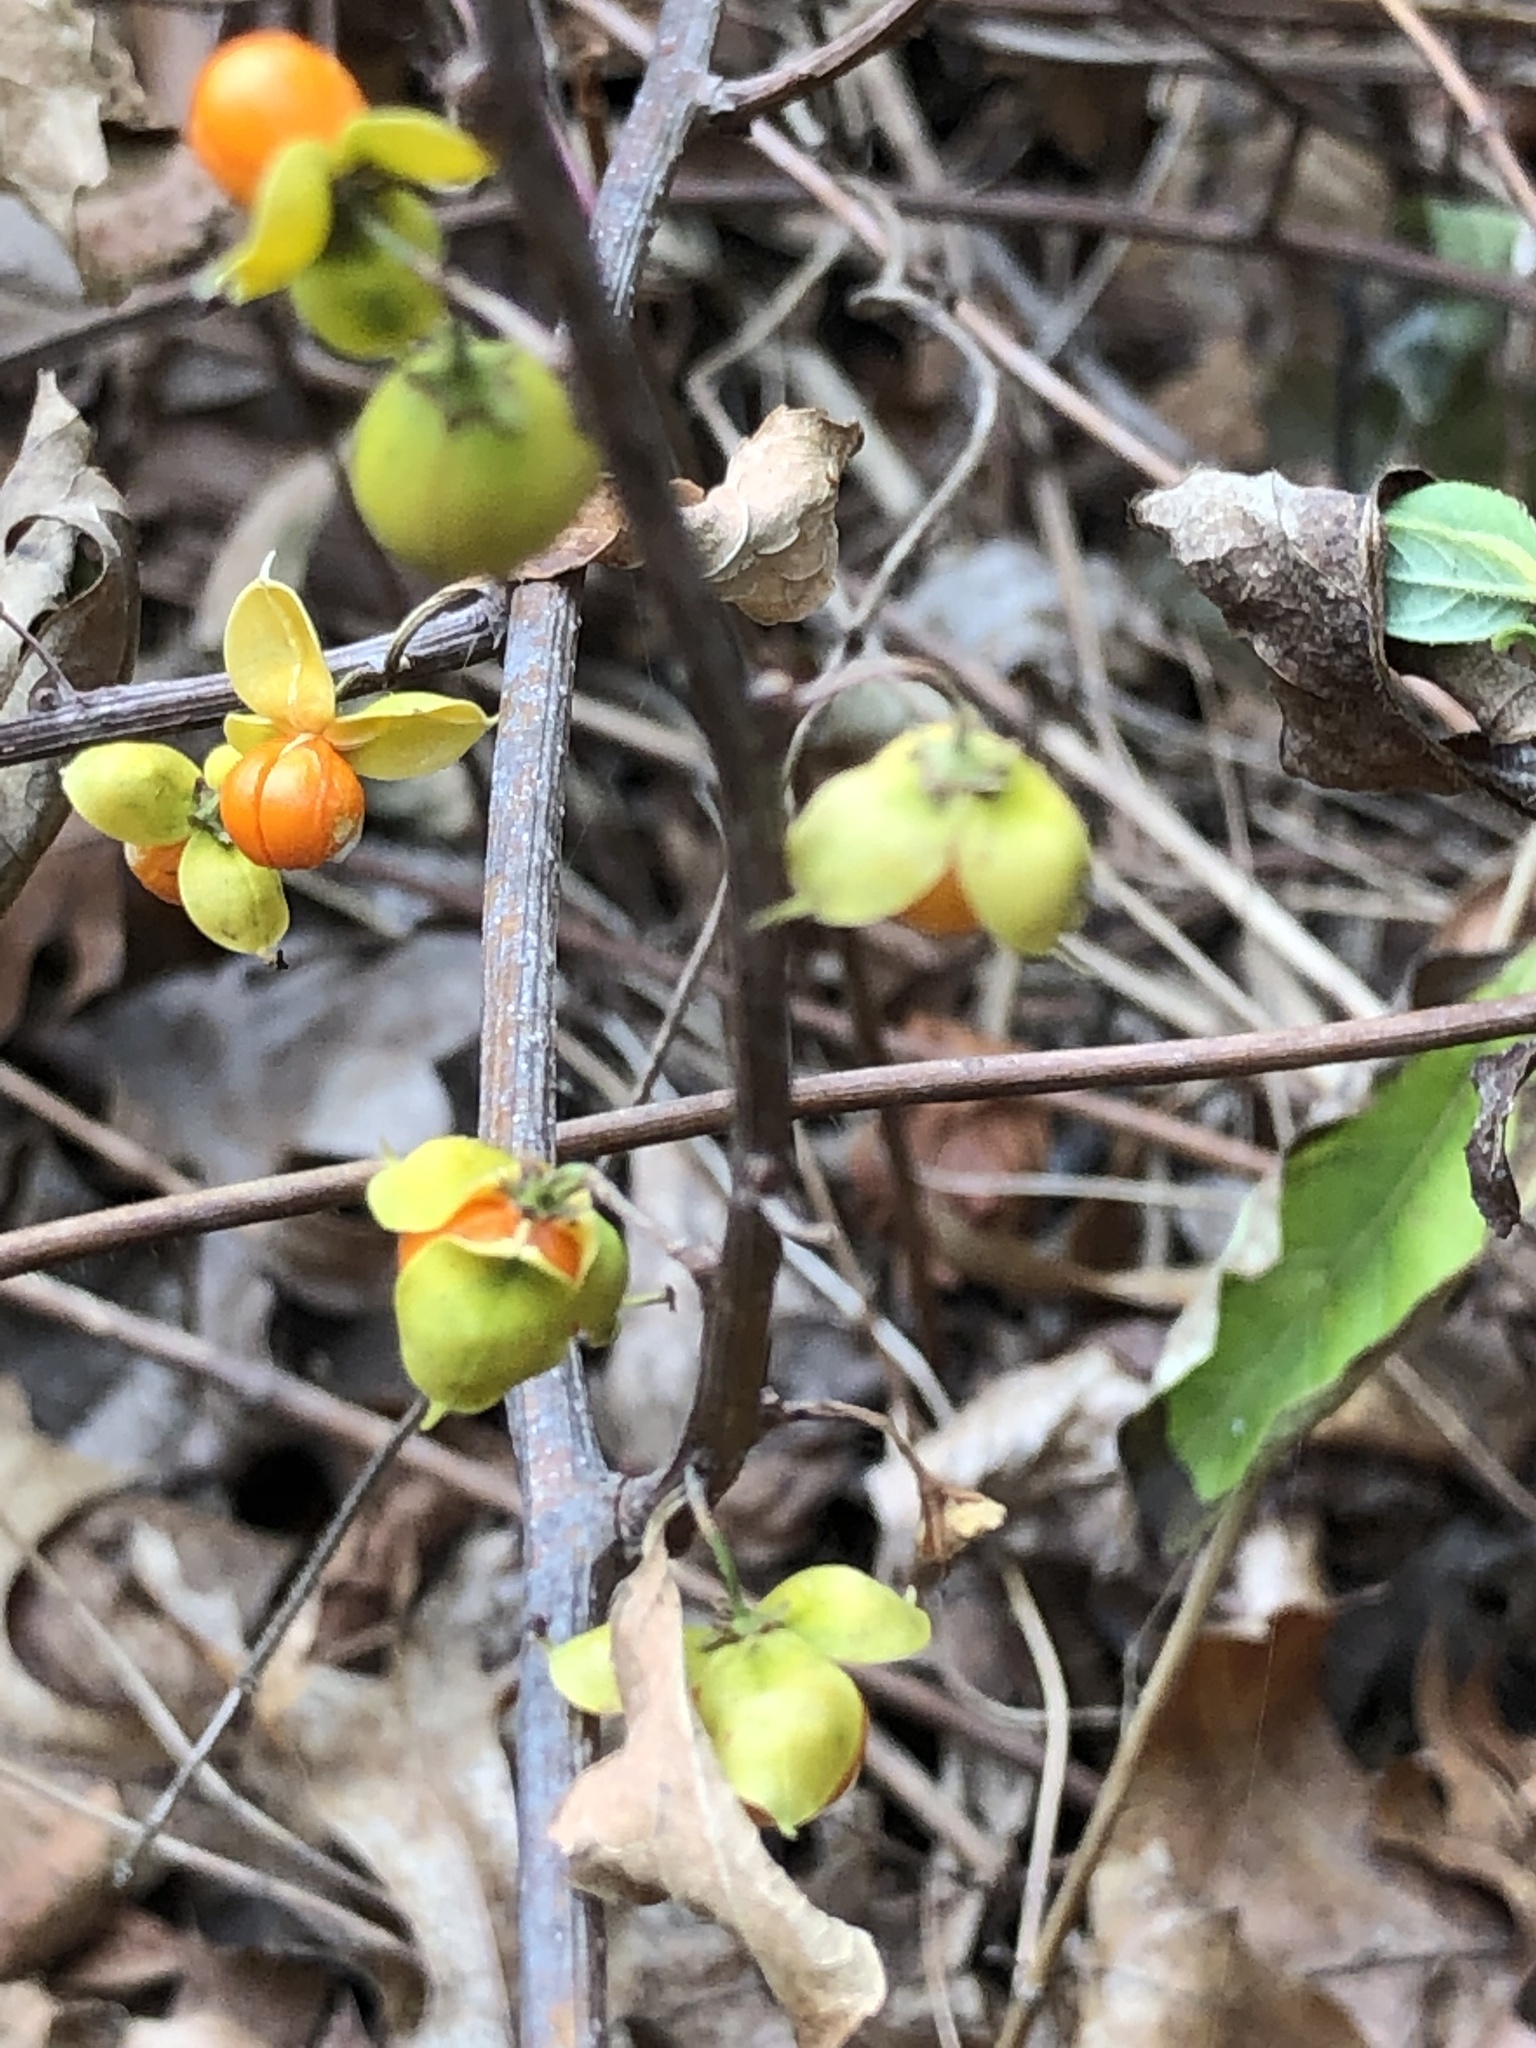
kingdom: Plantae
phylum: Tracheophyta
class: Magnoliopsida
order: Celastrales
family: Celastraceae
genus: Celastrus
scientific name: Celastrus orbiculatus
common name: Oriental bittersweet
